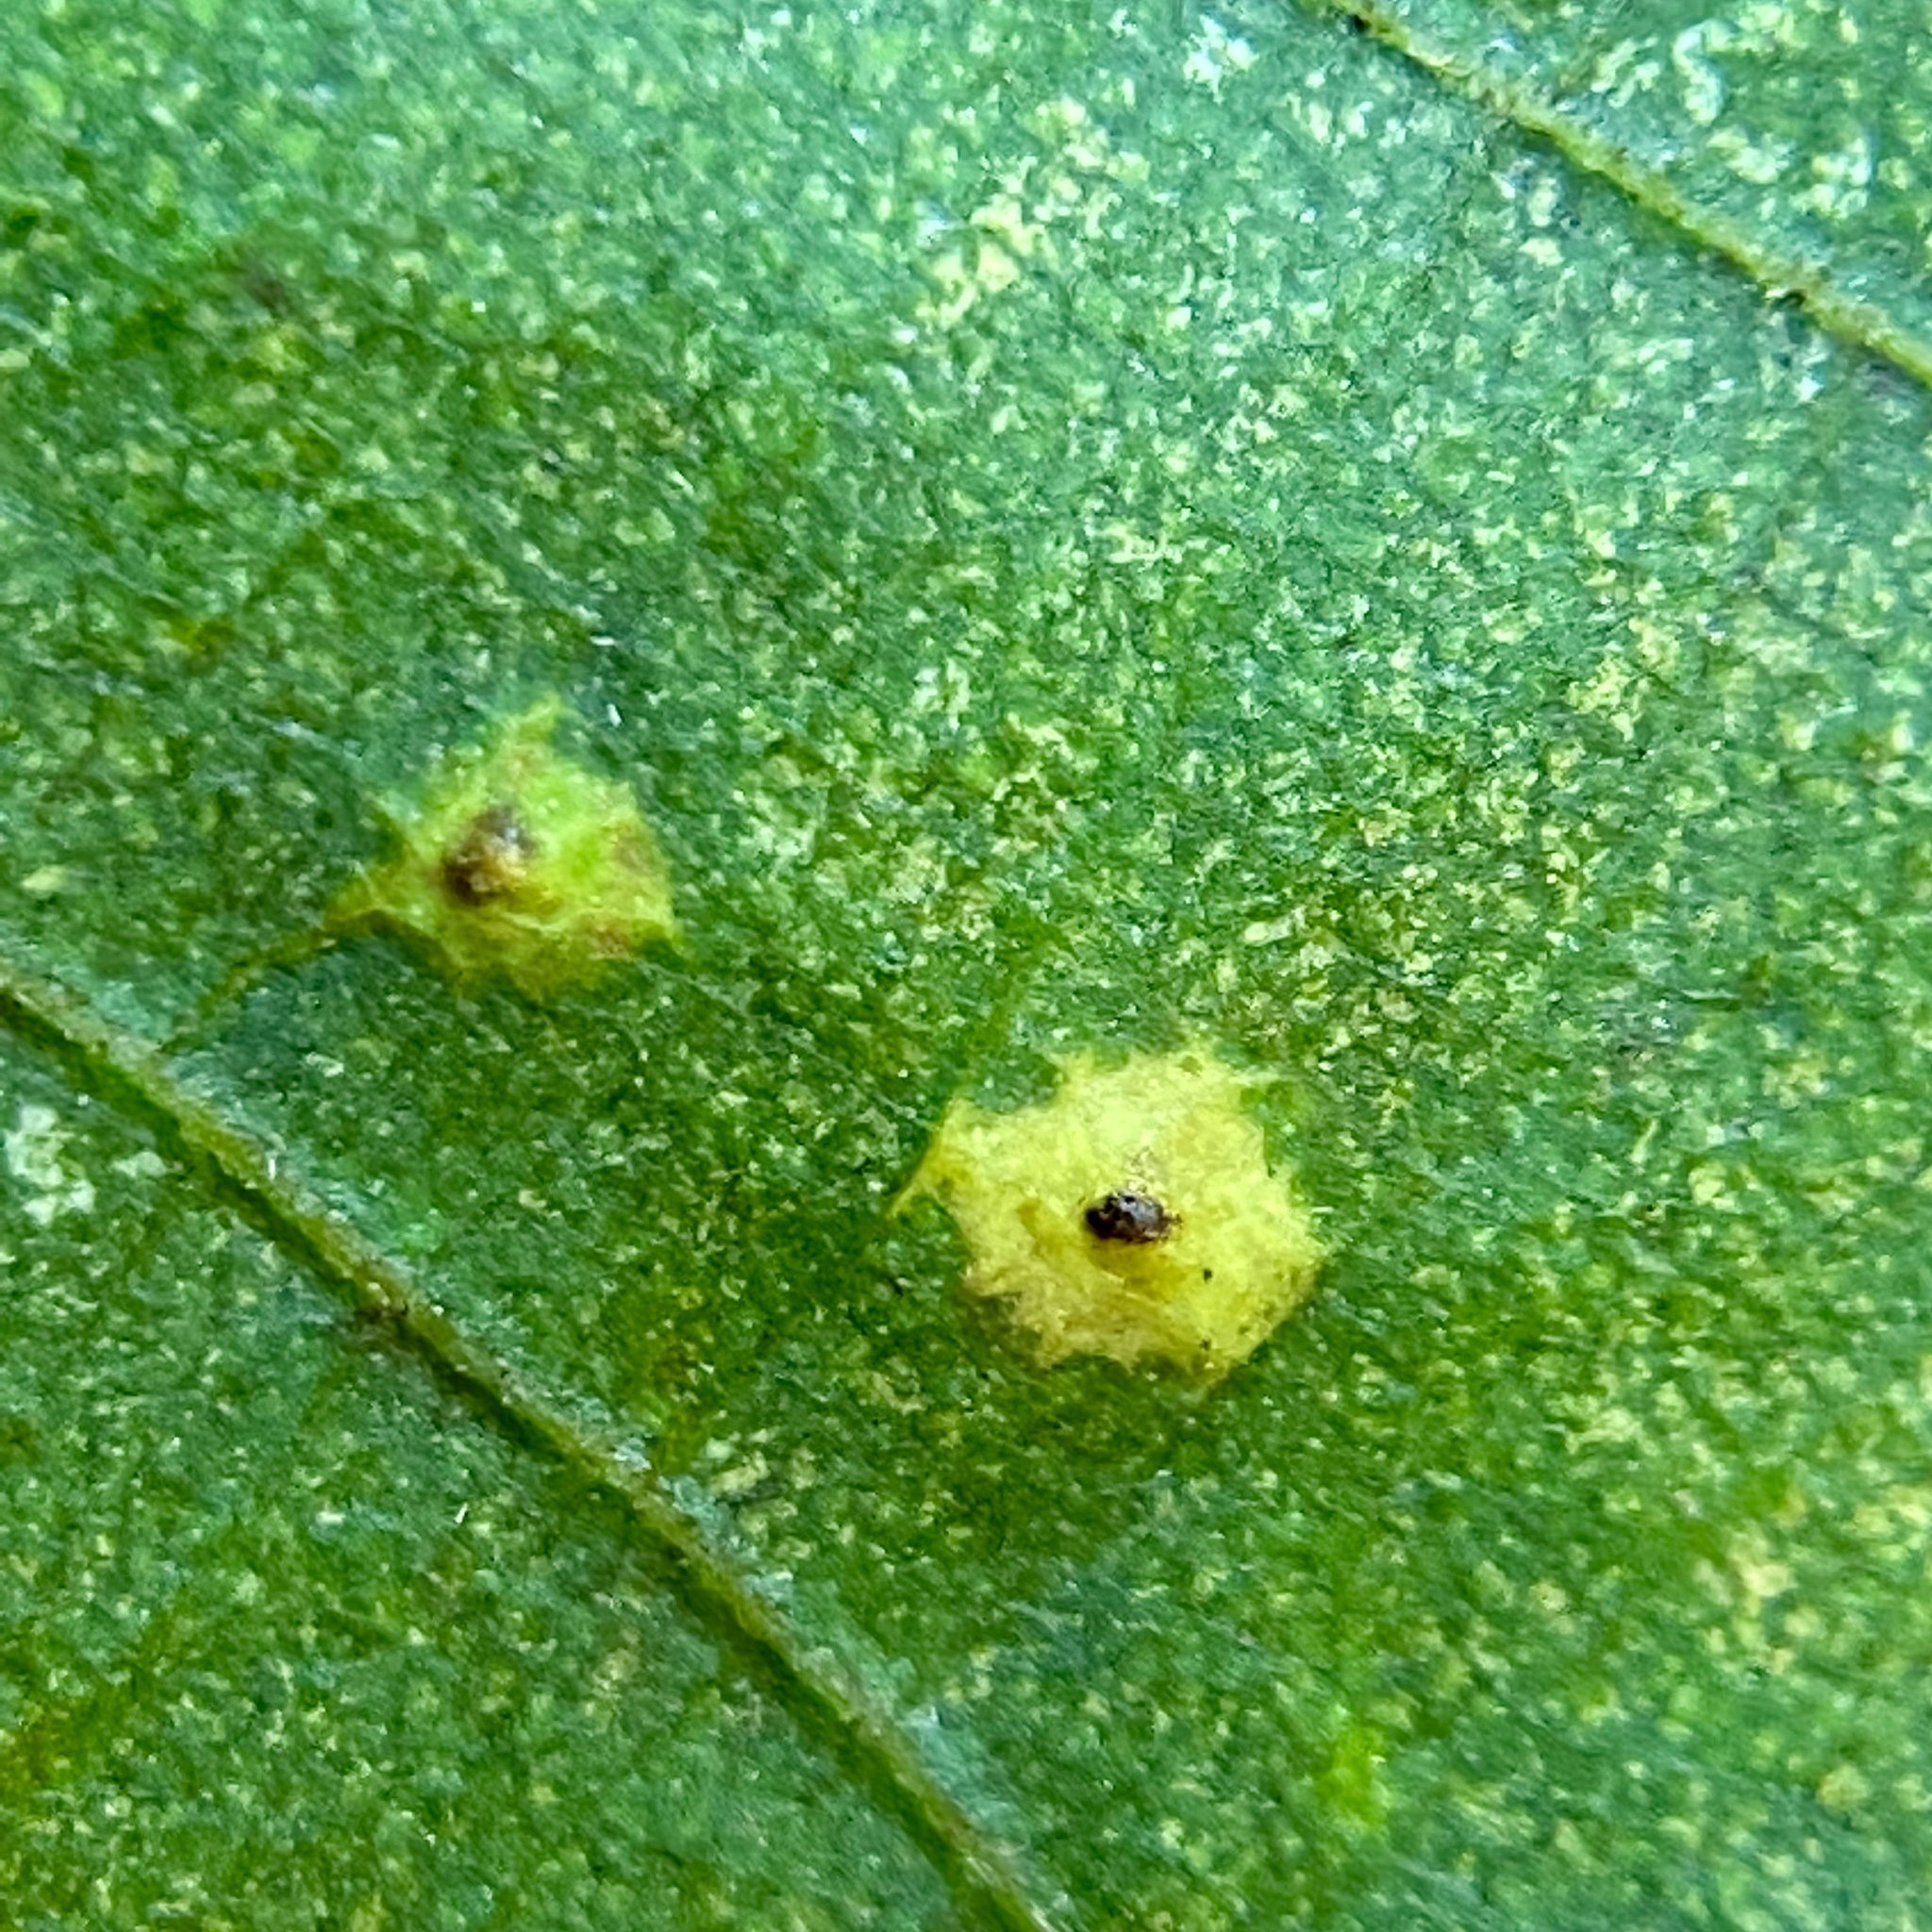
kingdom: Animalia
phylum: Arthropoda
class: Insecta
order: Diptera
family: Cecidomyiidae
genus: Caryomyia
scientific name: Caryomyia ovalis
